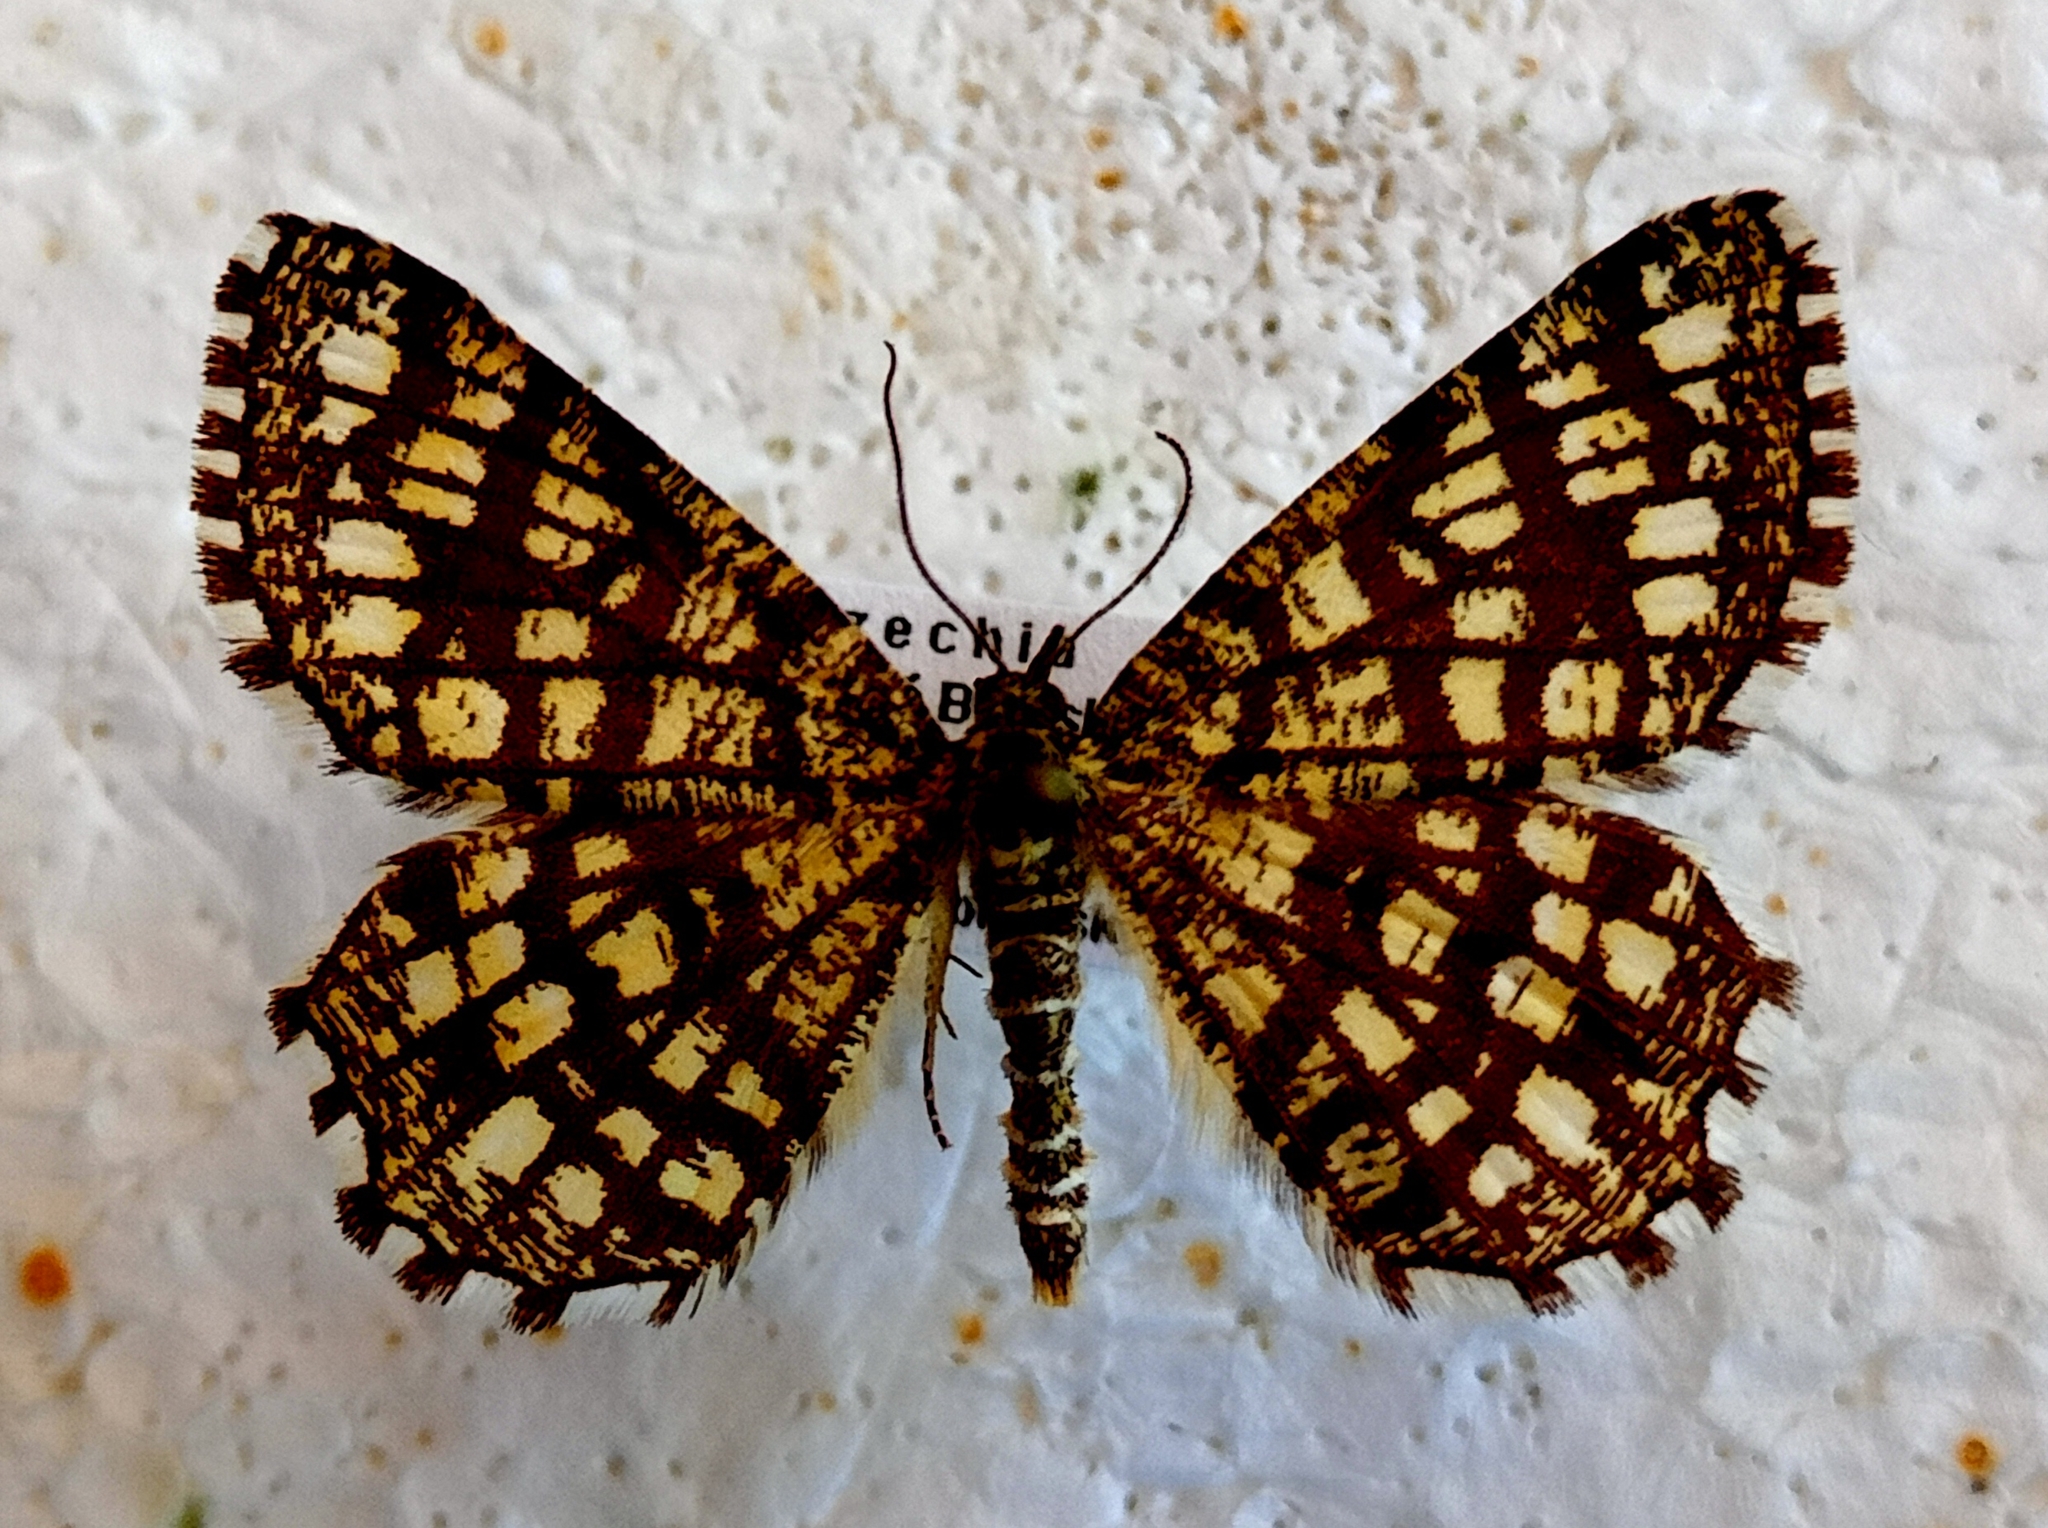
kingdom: Animalia
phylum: Arthropoda
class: Insecta
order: Lepidoptera
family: Geometridae
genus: Chiasmia
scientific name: Chiasmia clathrata
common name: Latticed heath
